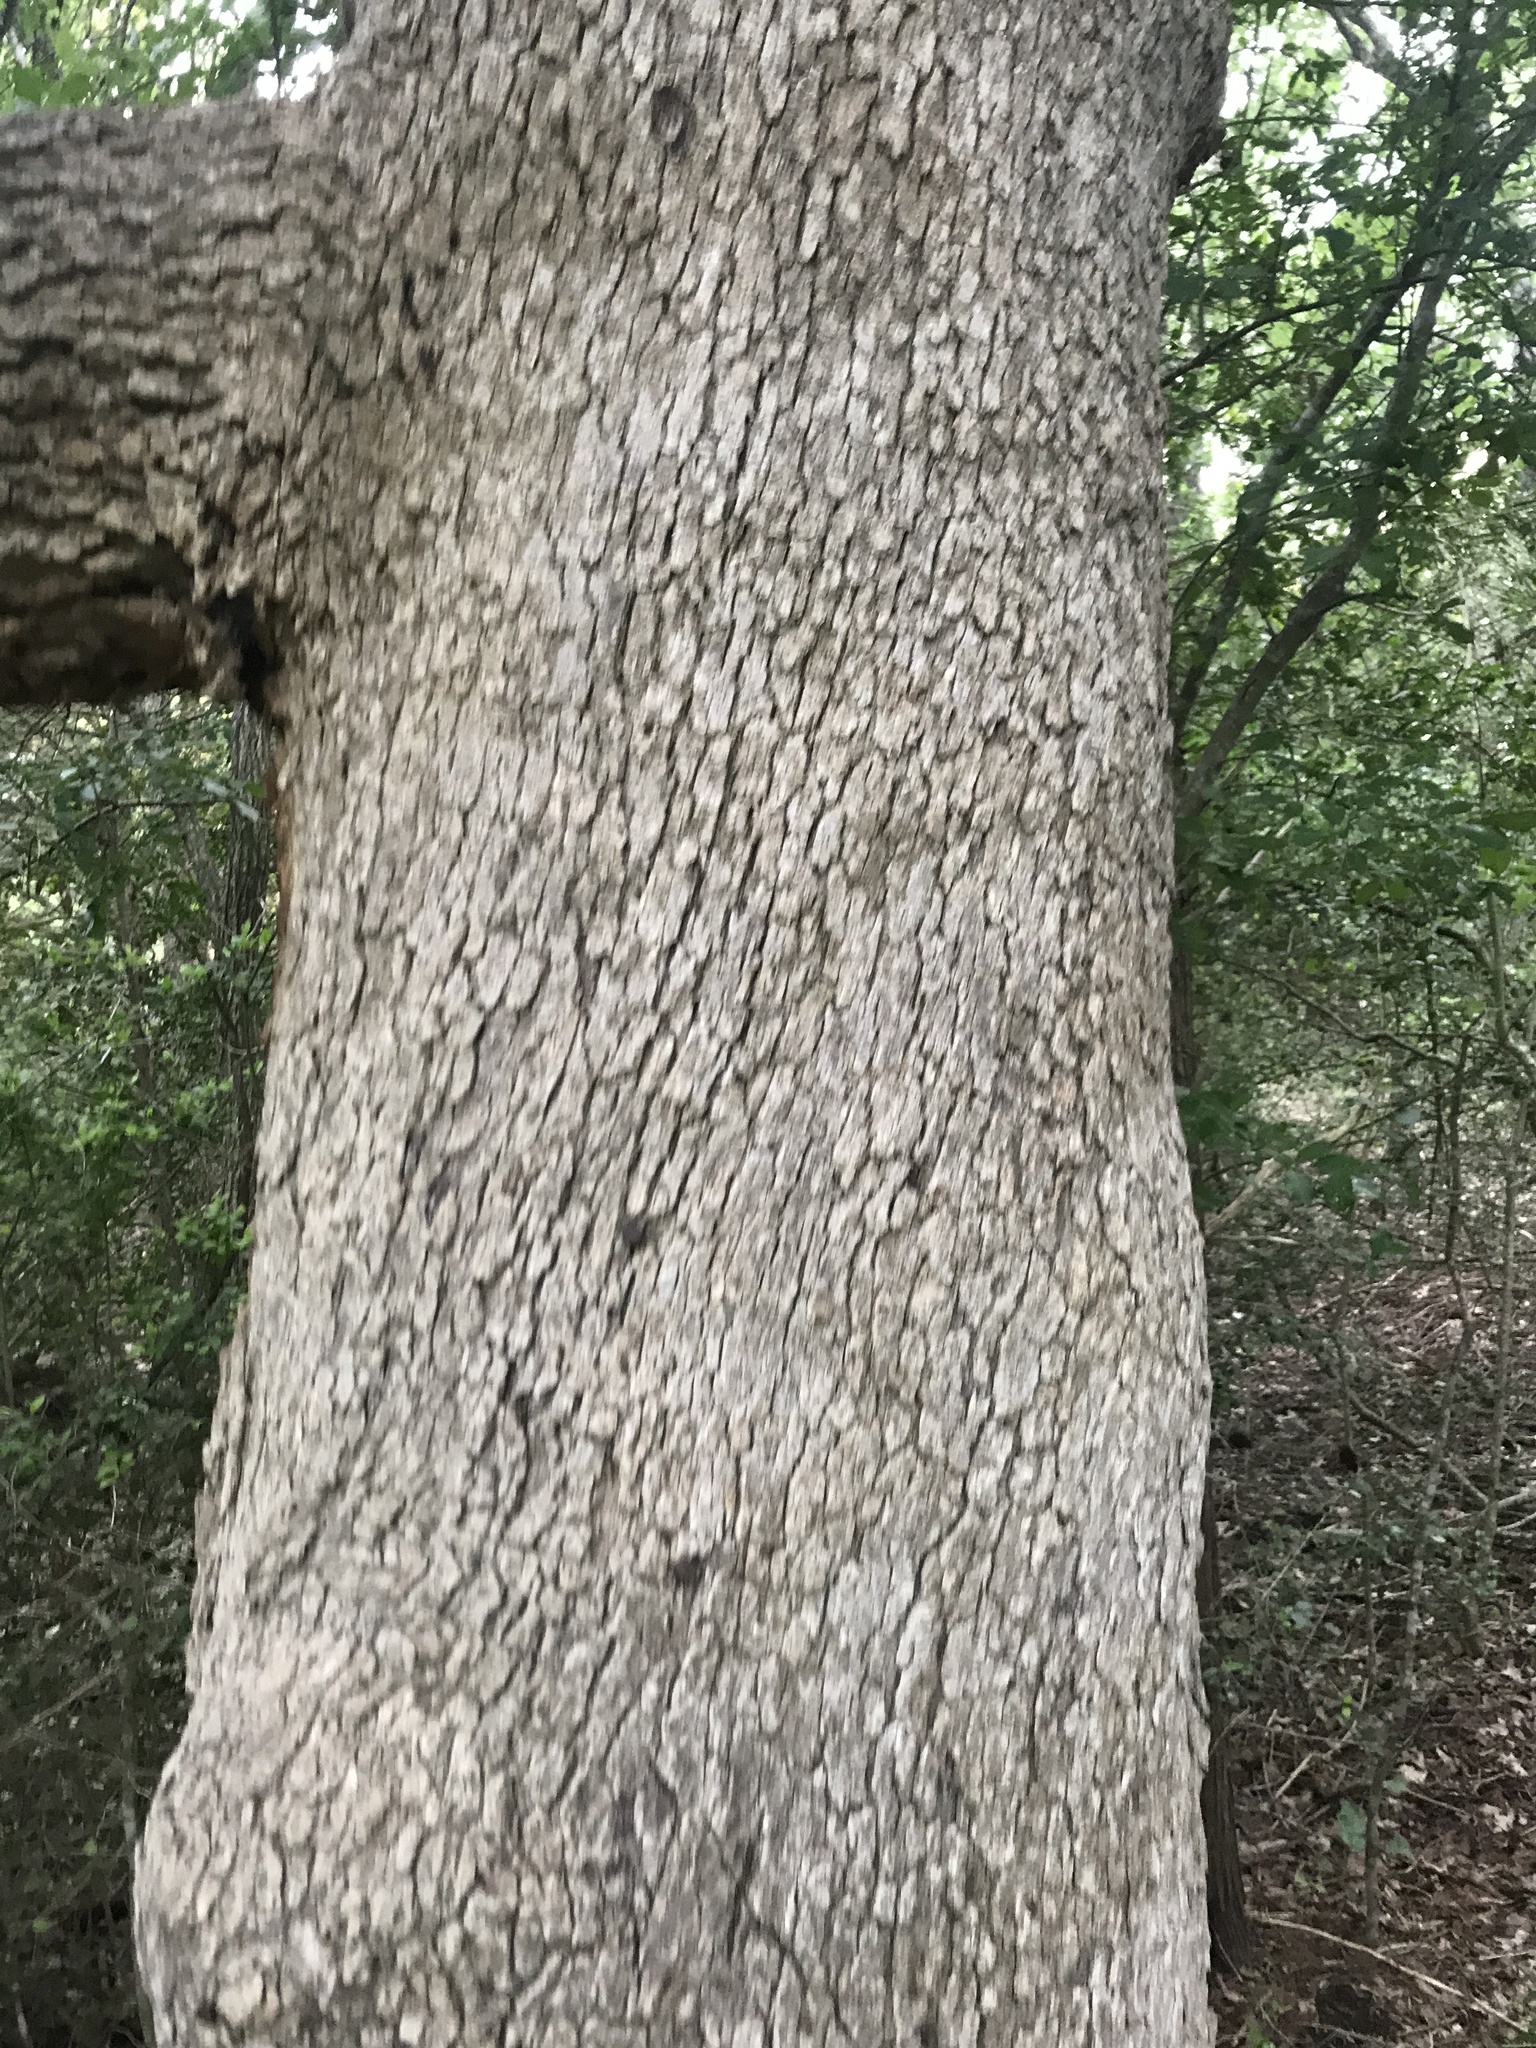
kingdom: Plantae
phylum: Tracheophyta
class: Magnoliopsida
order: Fagales
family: Fagaceae
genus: Quercus
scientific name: Quercus stellata
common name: Post oak
